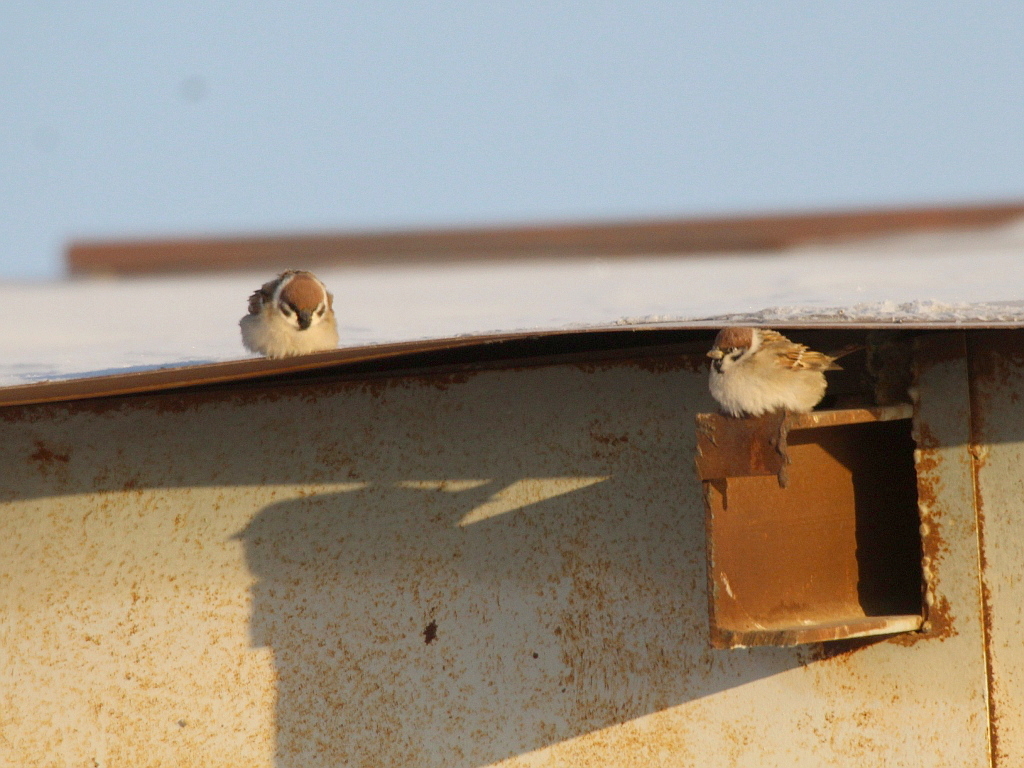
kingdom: Animalia
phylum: Chordata
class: Aves
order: Passeriformes
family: Passeridae
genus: Passer
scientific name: Passer montanus
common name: Eurasian tree sparrow
